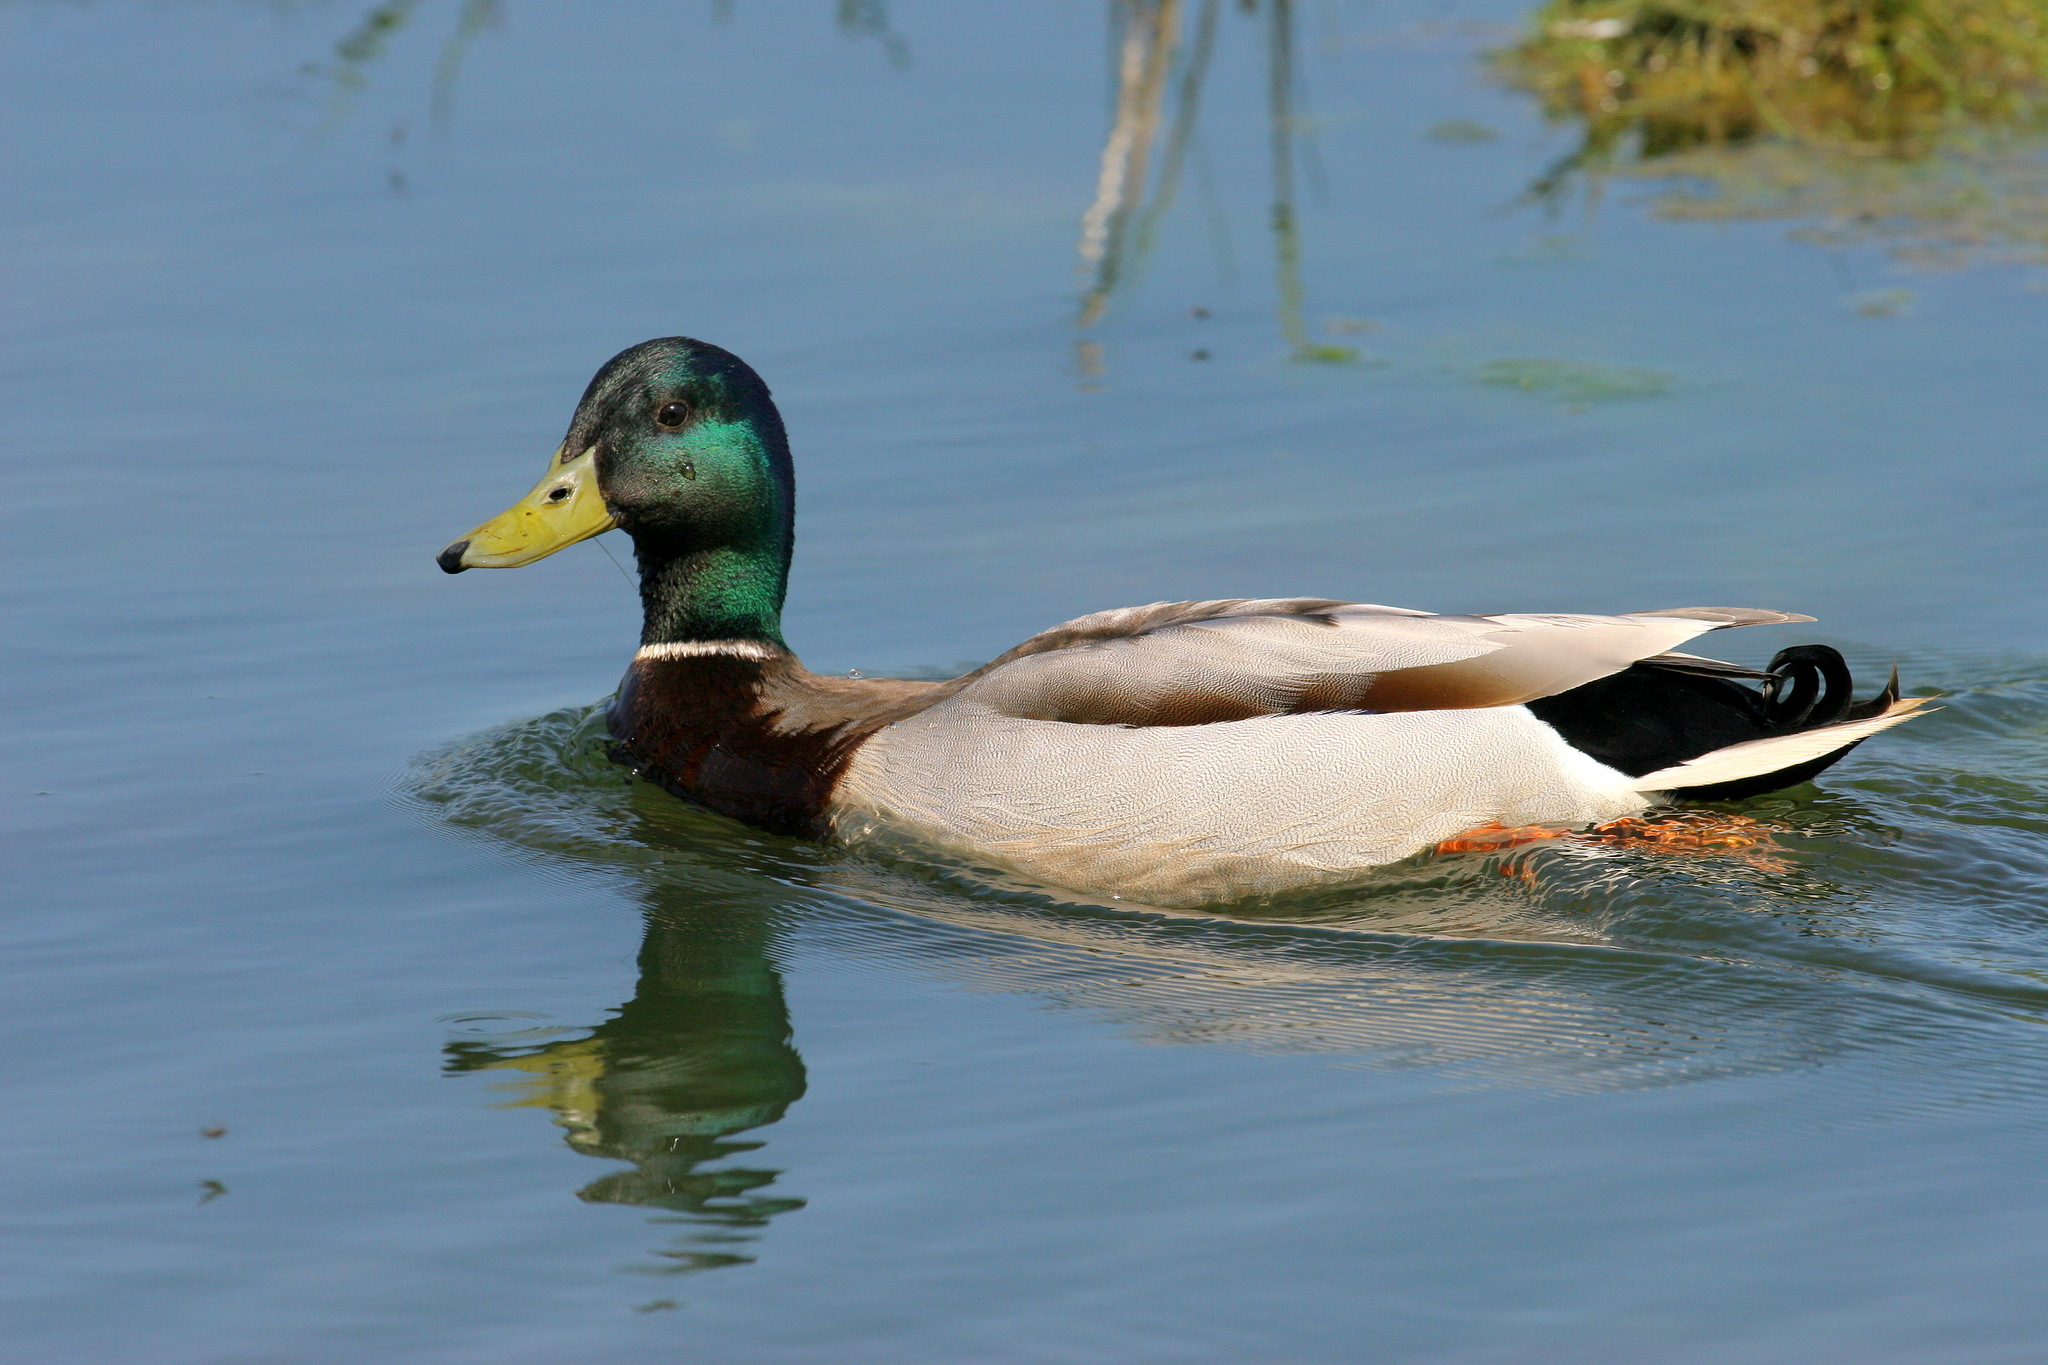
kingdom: Animalia
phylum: Chordata
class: Aves
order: Anseriformes
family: Anatidae
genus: Anas
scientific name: Anas platyrhynchos
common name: Mallard
